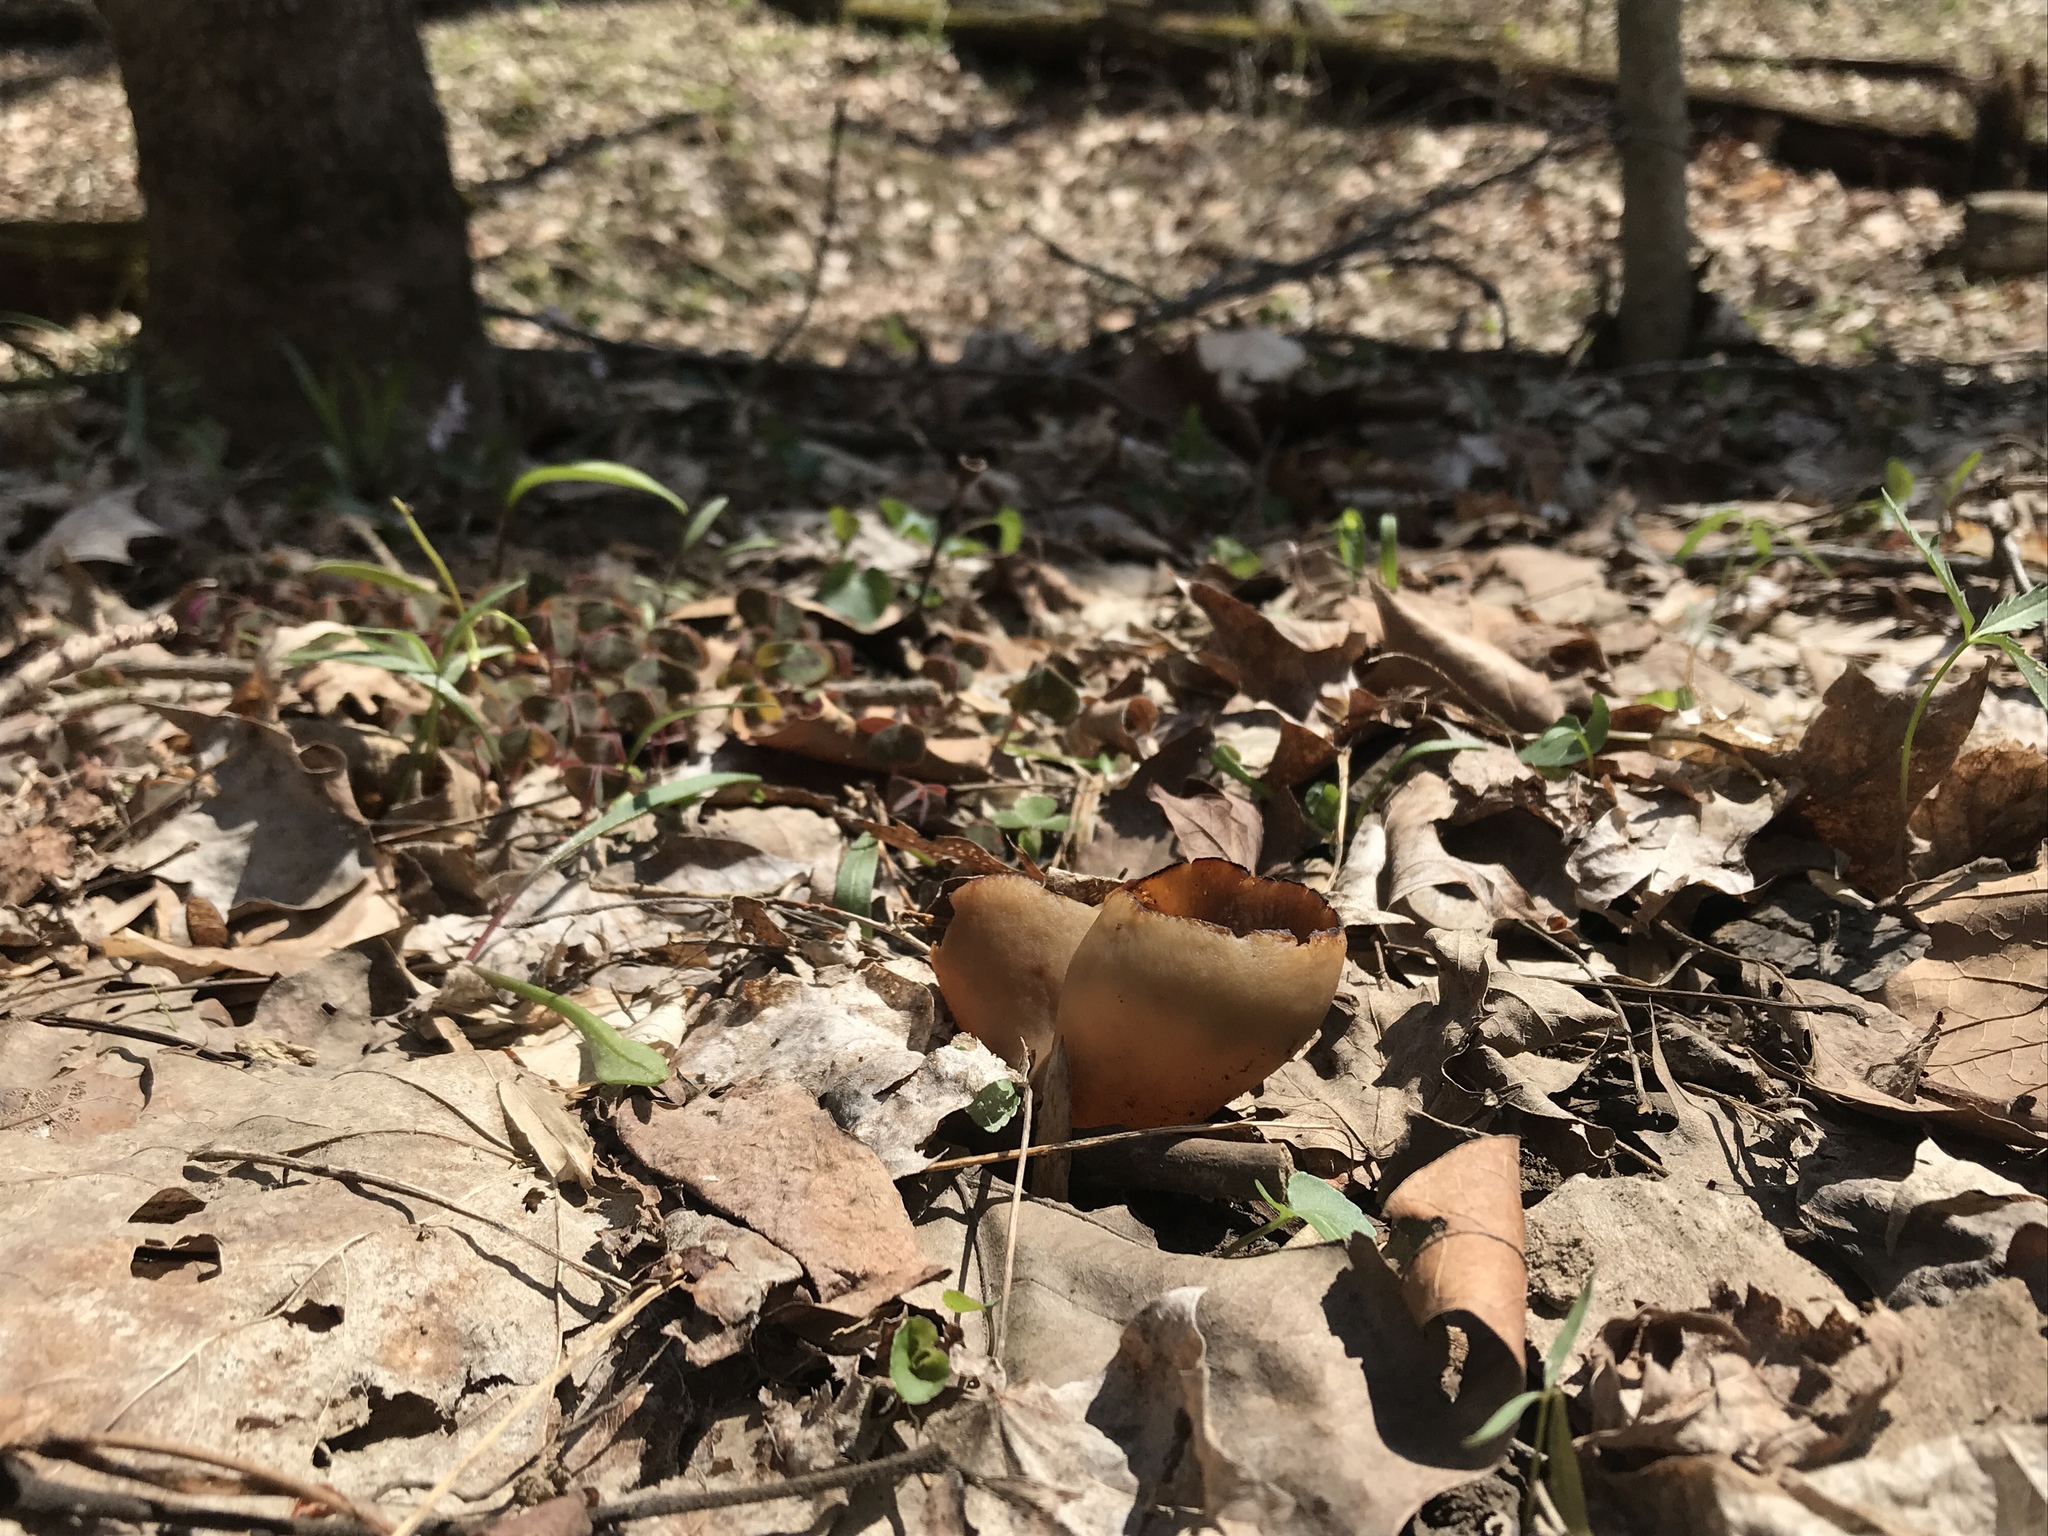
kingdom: Fungi
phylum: Ascomycota
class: Pezizomycetes
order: Pezizales
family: Morchellaceae
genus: Disciotis
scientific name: Disciotis venosa
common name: Bleach cup
